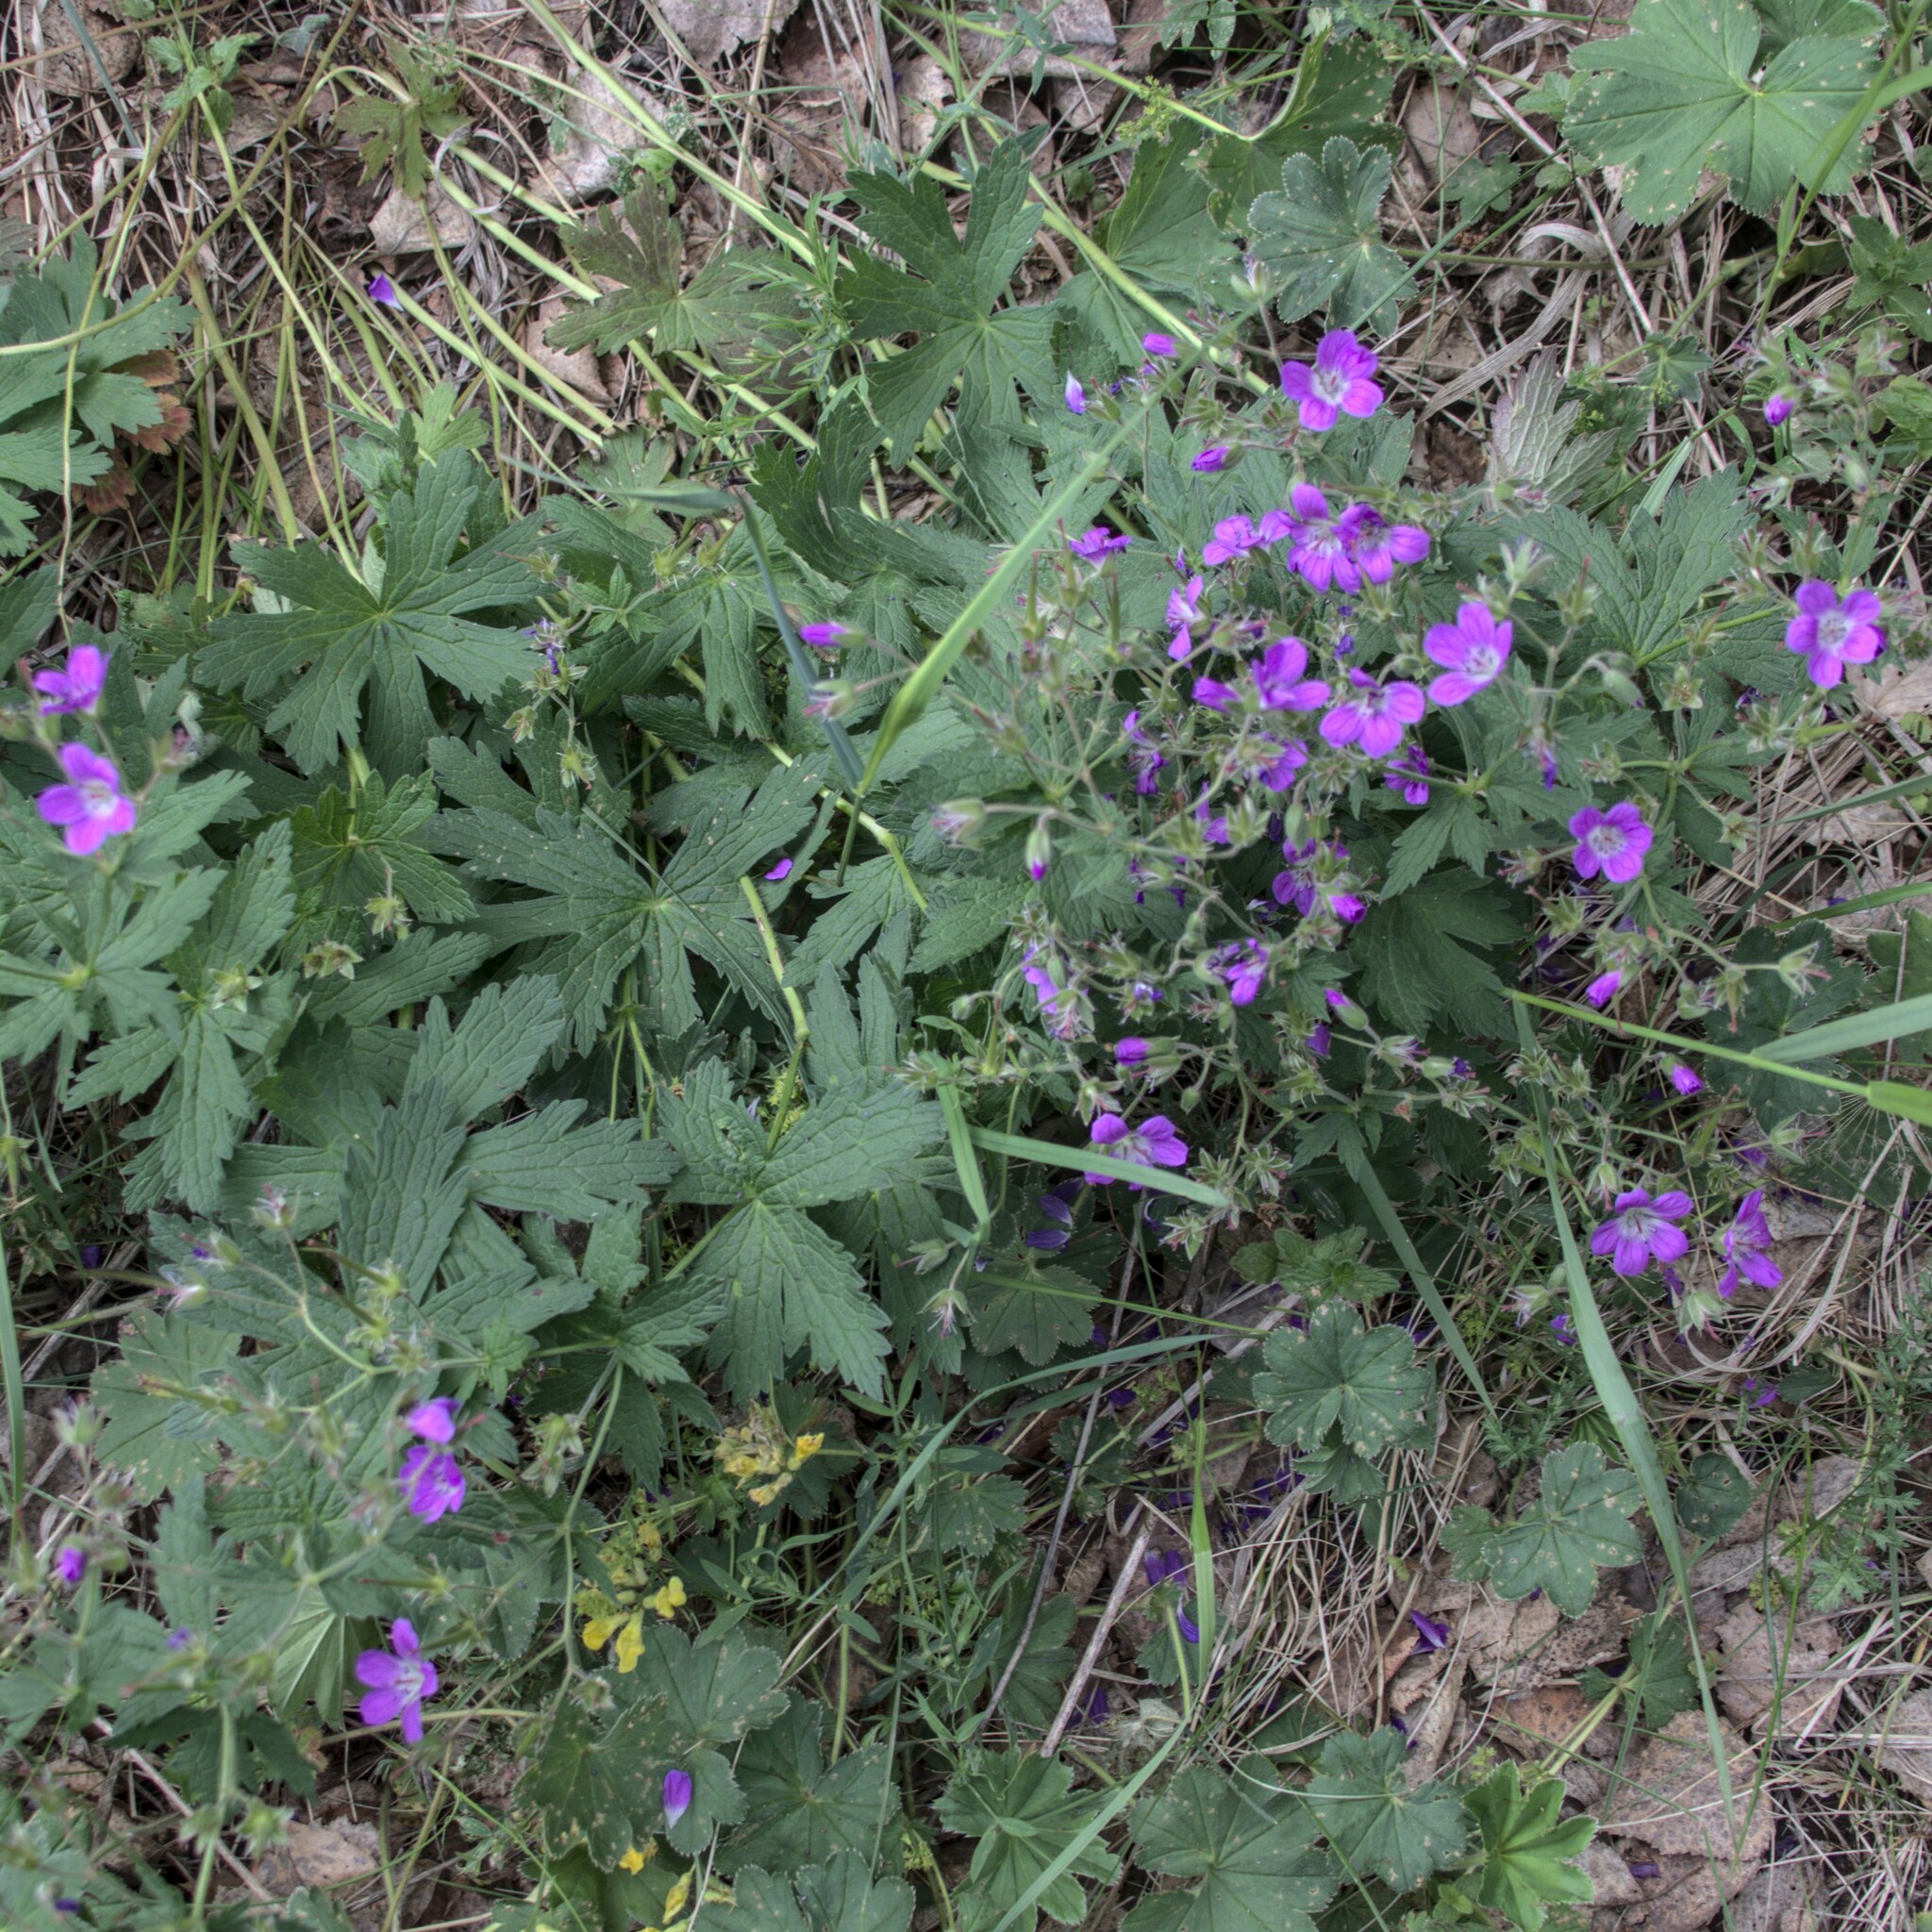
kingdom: Plantae
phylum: Tracheophyta
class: Magnoliopsida
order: Geraniales
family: Geraniaceae
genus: Geranium
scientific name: Geranium sylvaticum
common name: Wood crane's-bill
